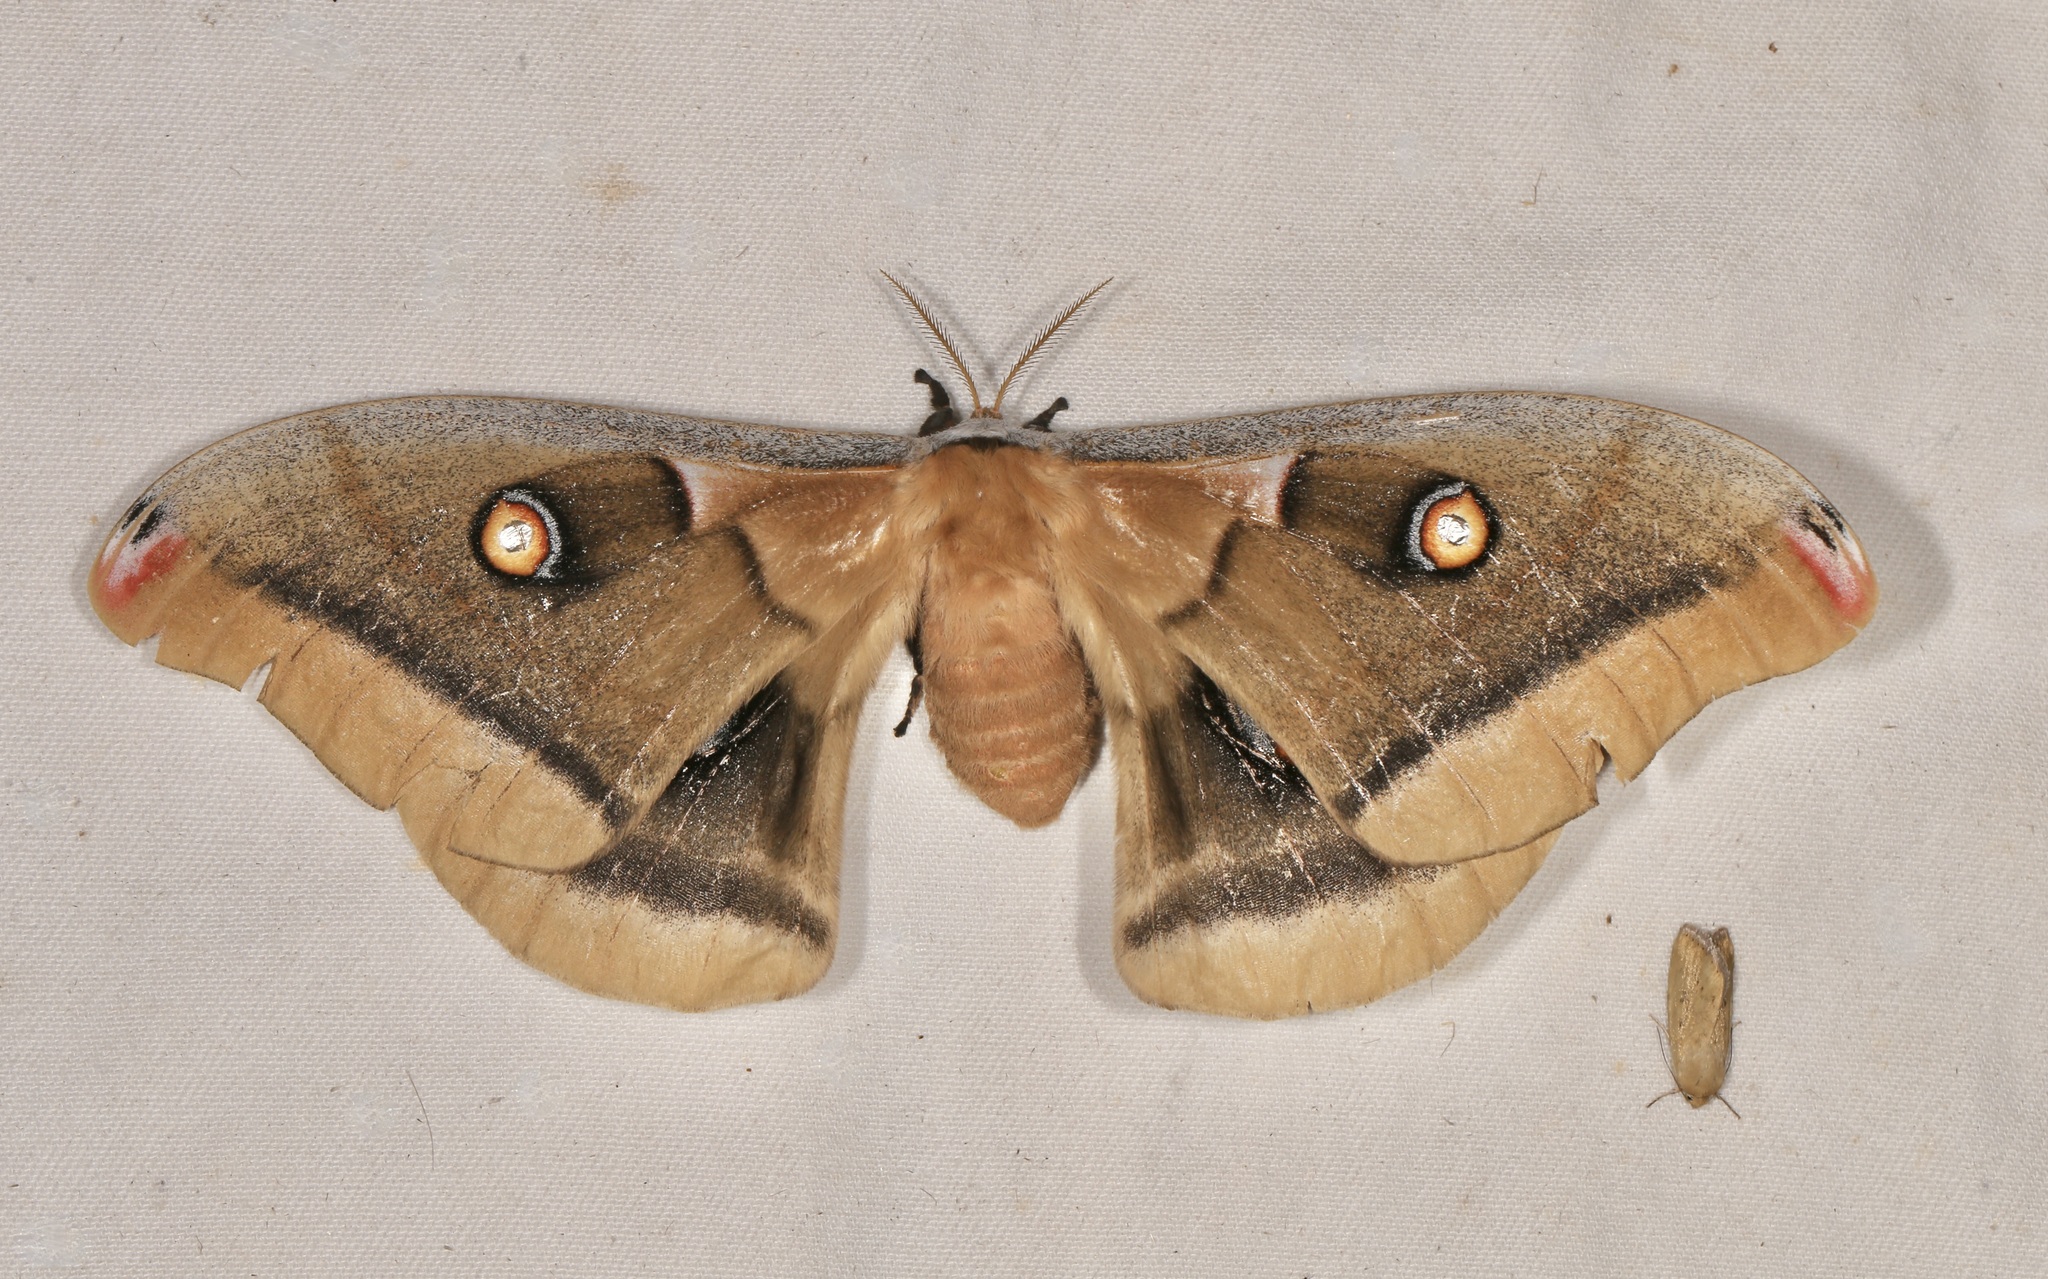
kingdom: Animalia
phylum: Arthropoda
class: Insecta
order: Lepidoptera
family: Saturniidae
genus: Antheraea
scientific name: Antheraea oculea
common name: Arizona polyphemus moth
